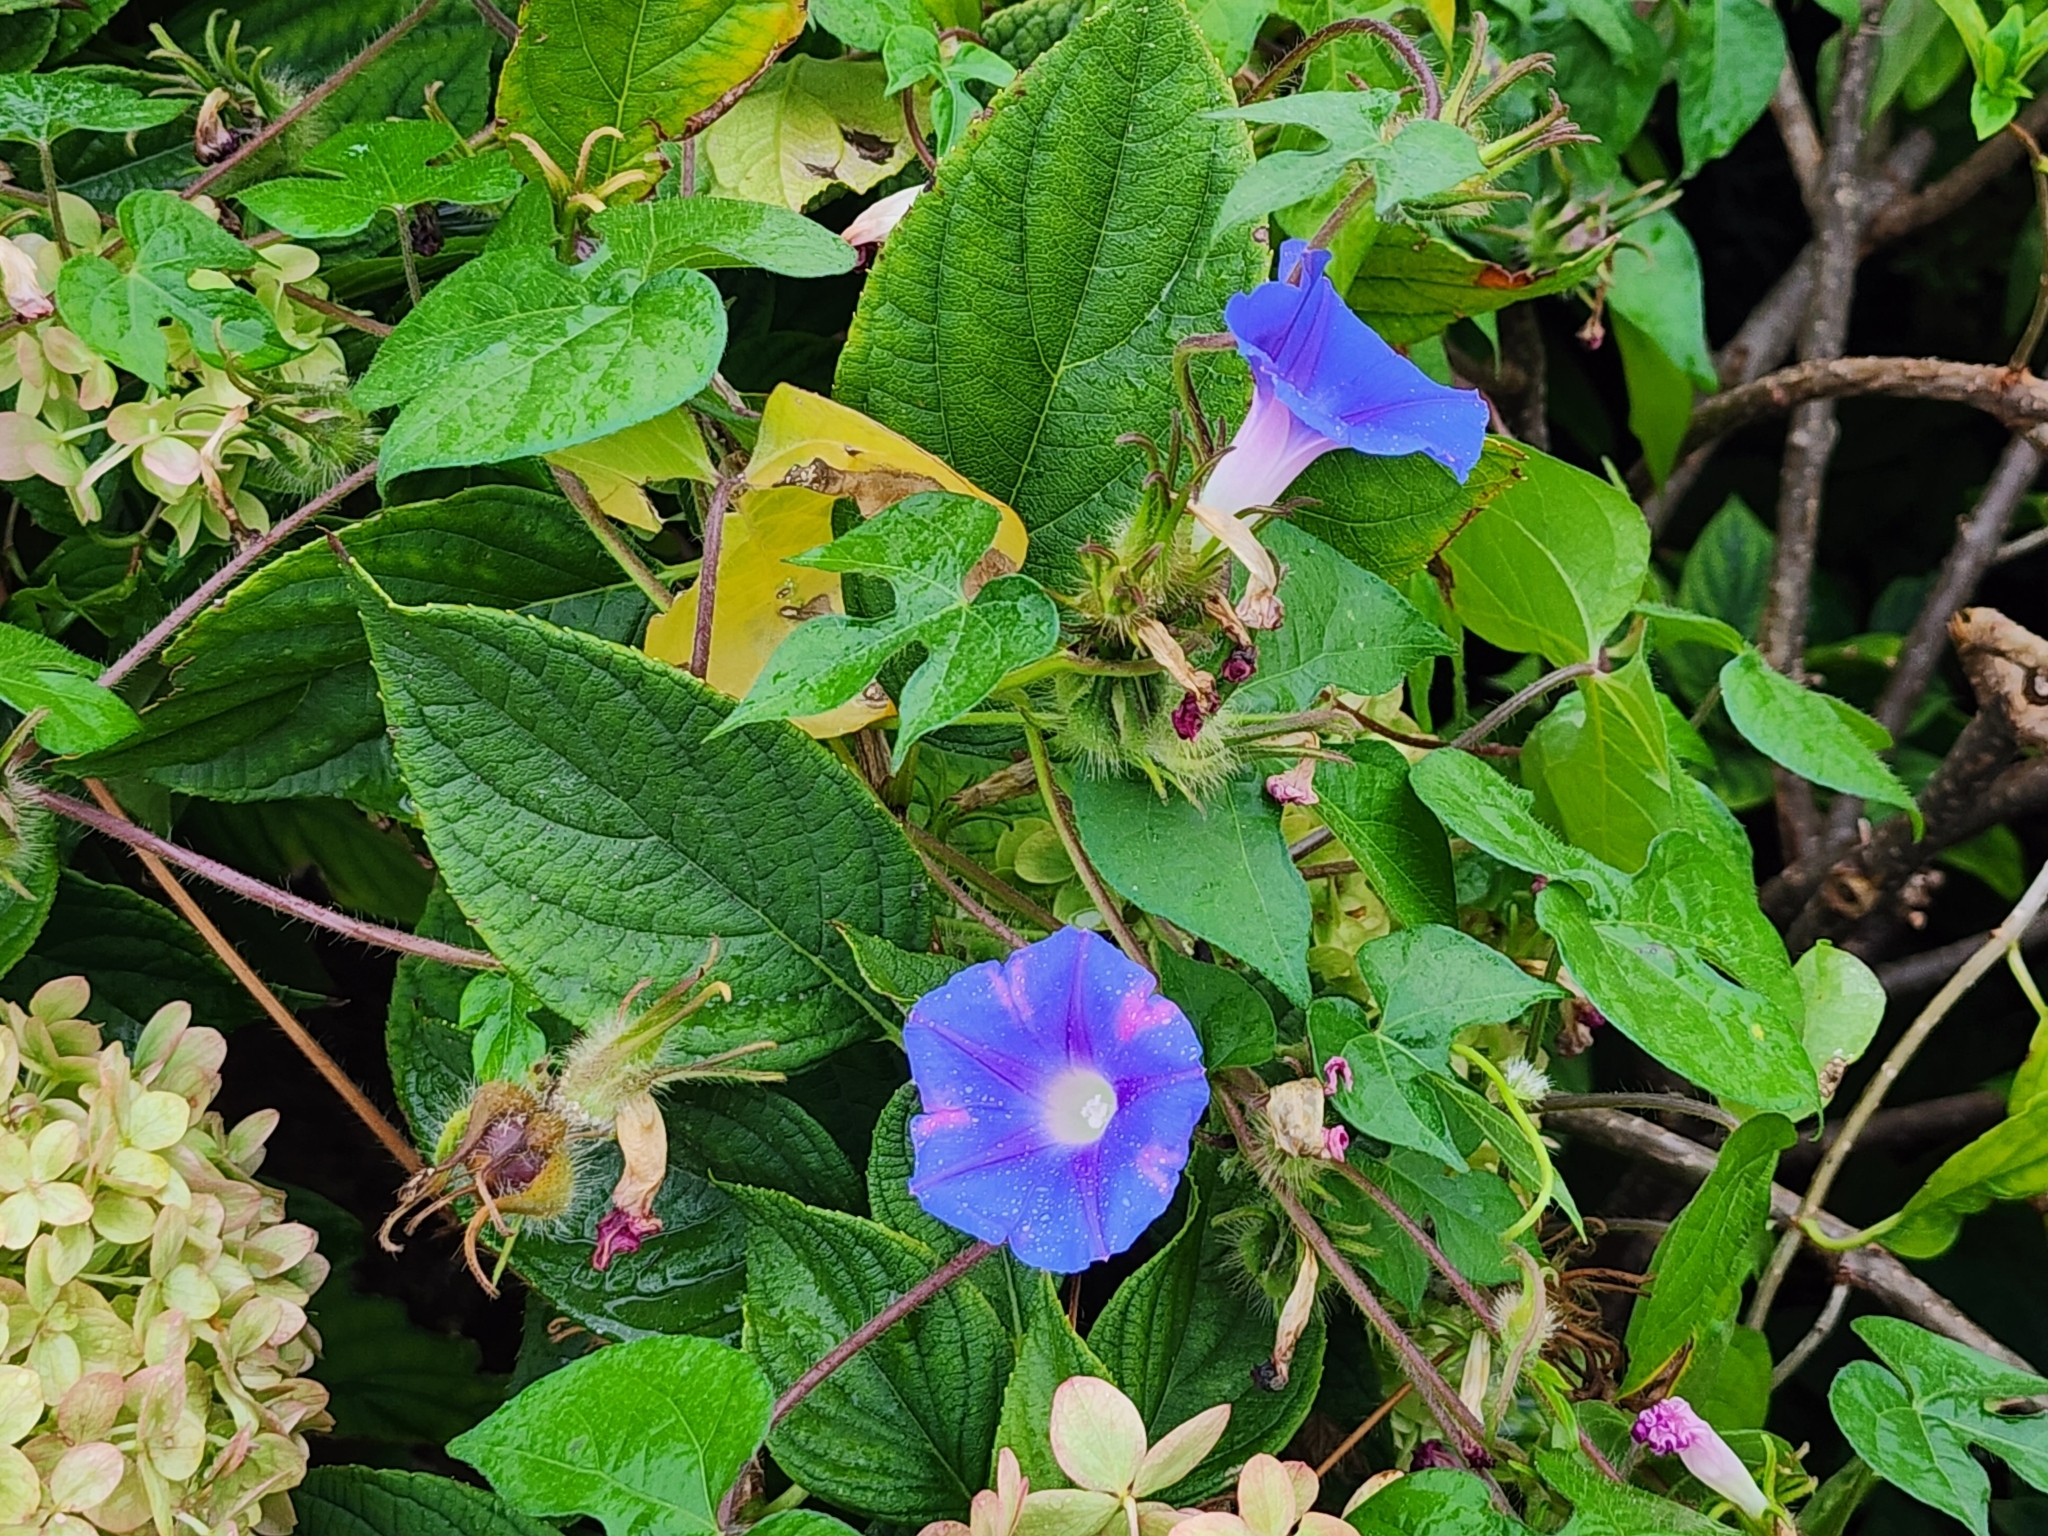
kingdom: Plantae
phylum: Tracheophyta
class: Magnoliopsida
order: Solanales
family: Convolvulaceae
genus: Ipomoea
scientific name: Ipomoea hederacea
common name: Ivy-leaved morning-glory
